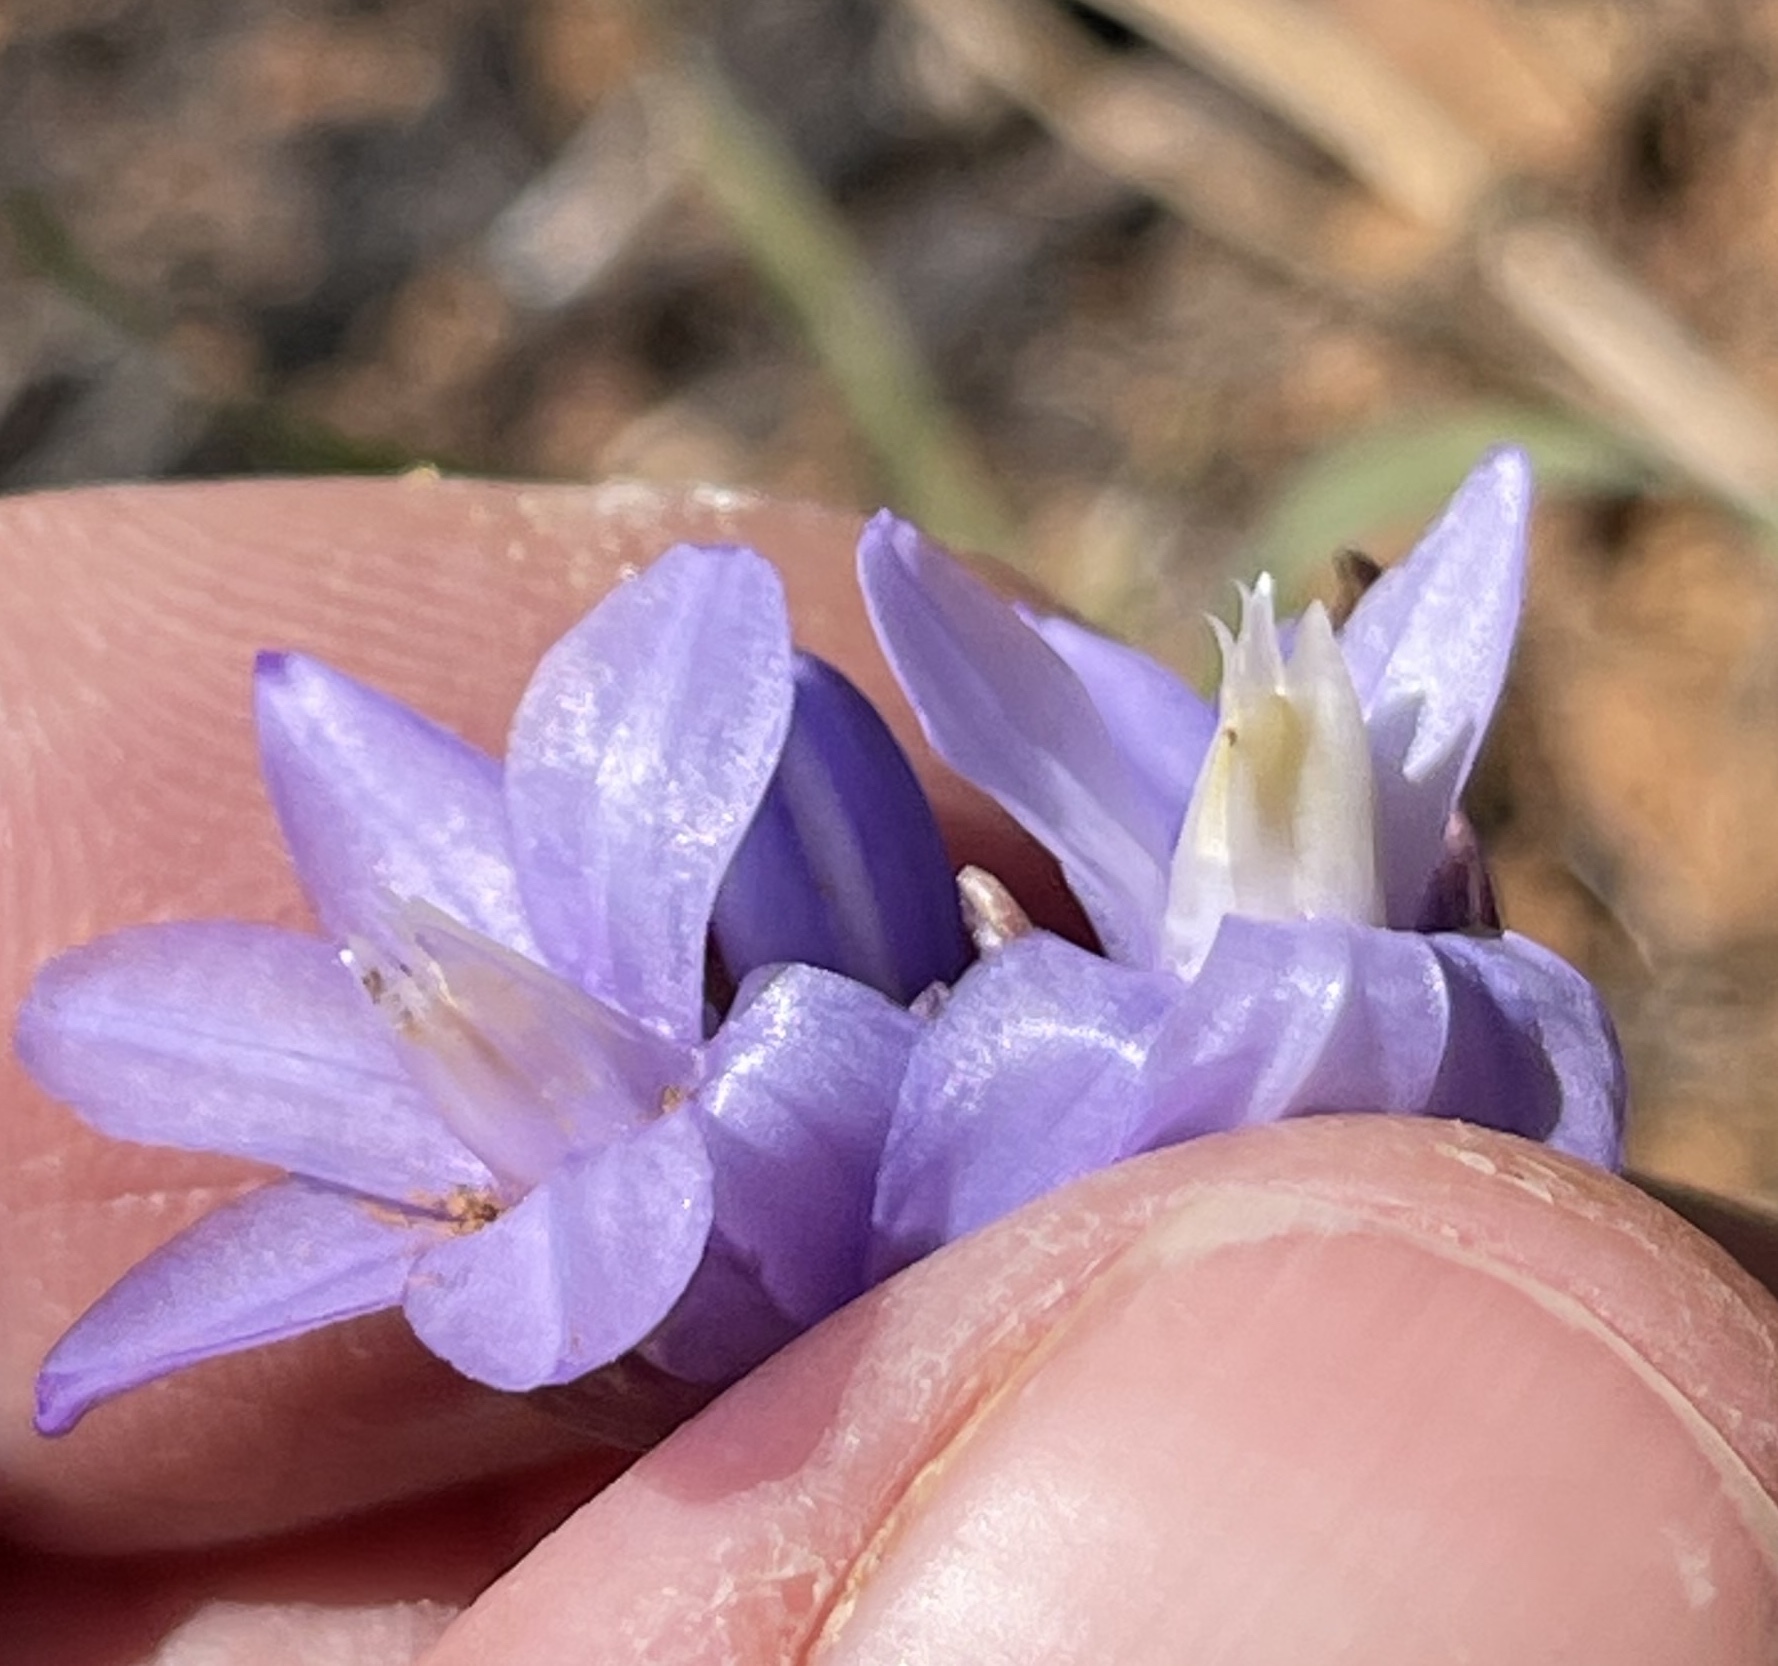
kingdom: Plantae
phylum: Tracheophyta
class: Liliopsida
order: Asparagales
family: Asparagaceae
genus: Dipterostemon
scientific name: Dipterostemon capitatus
